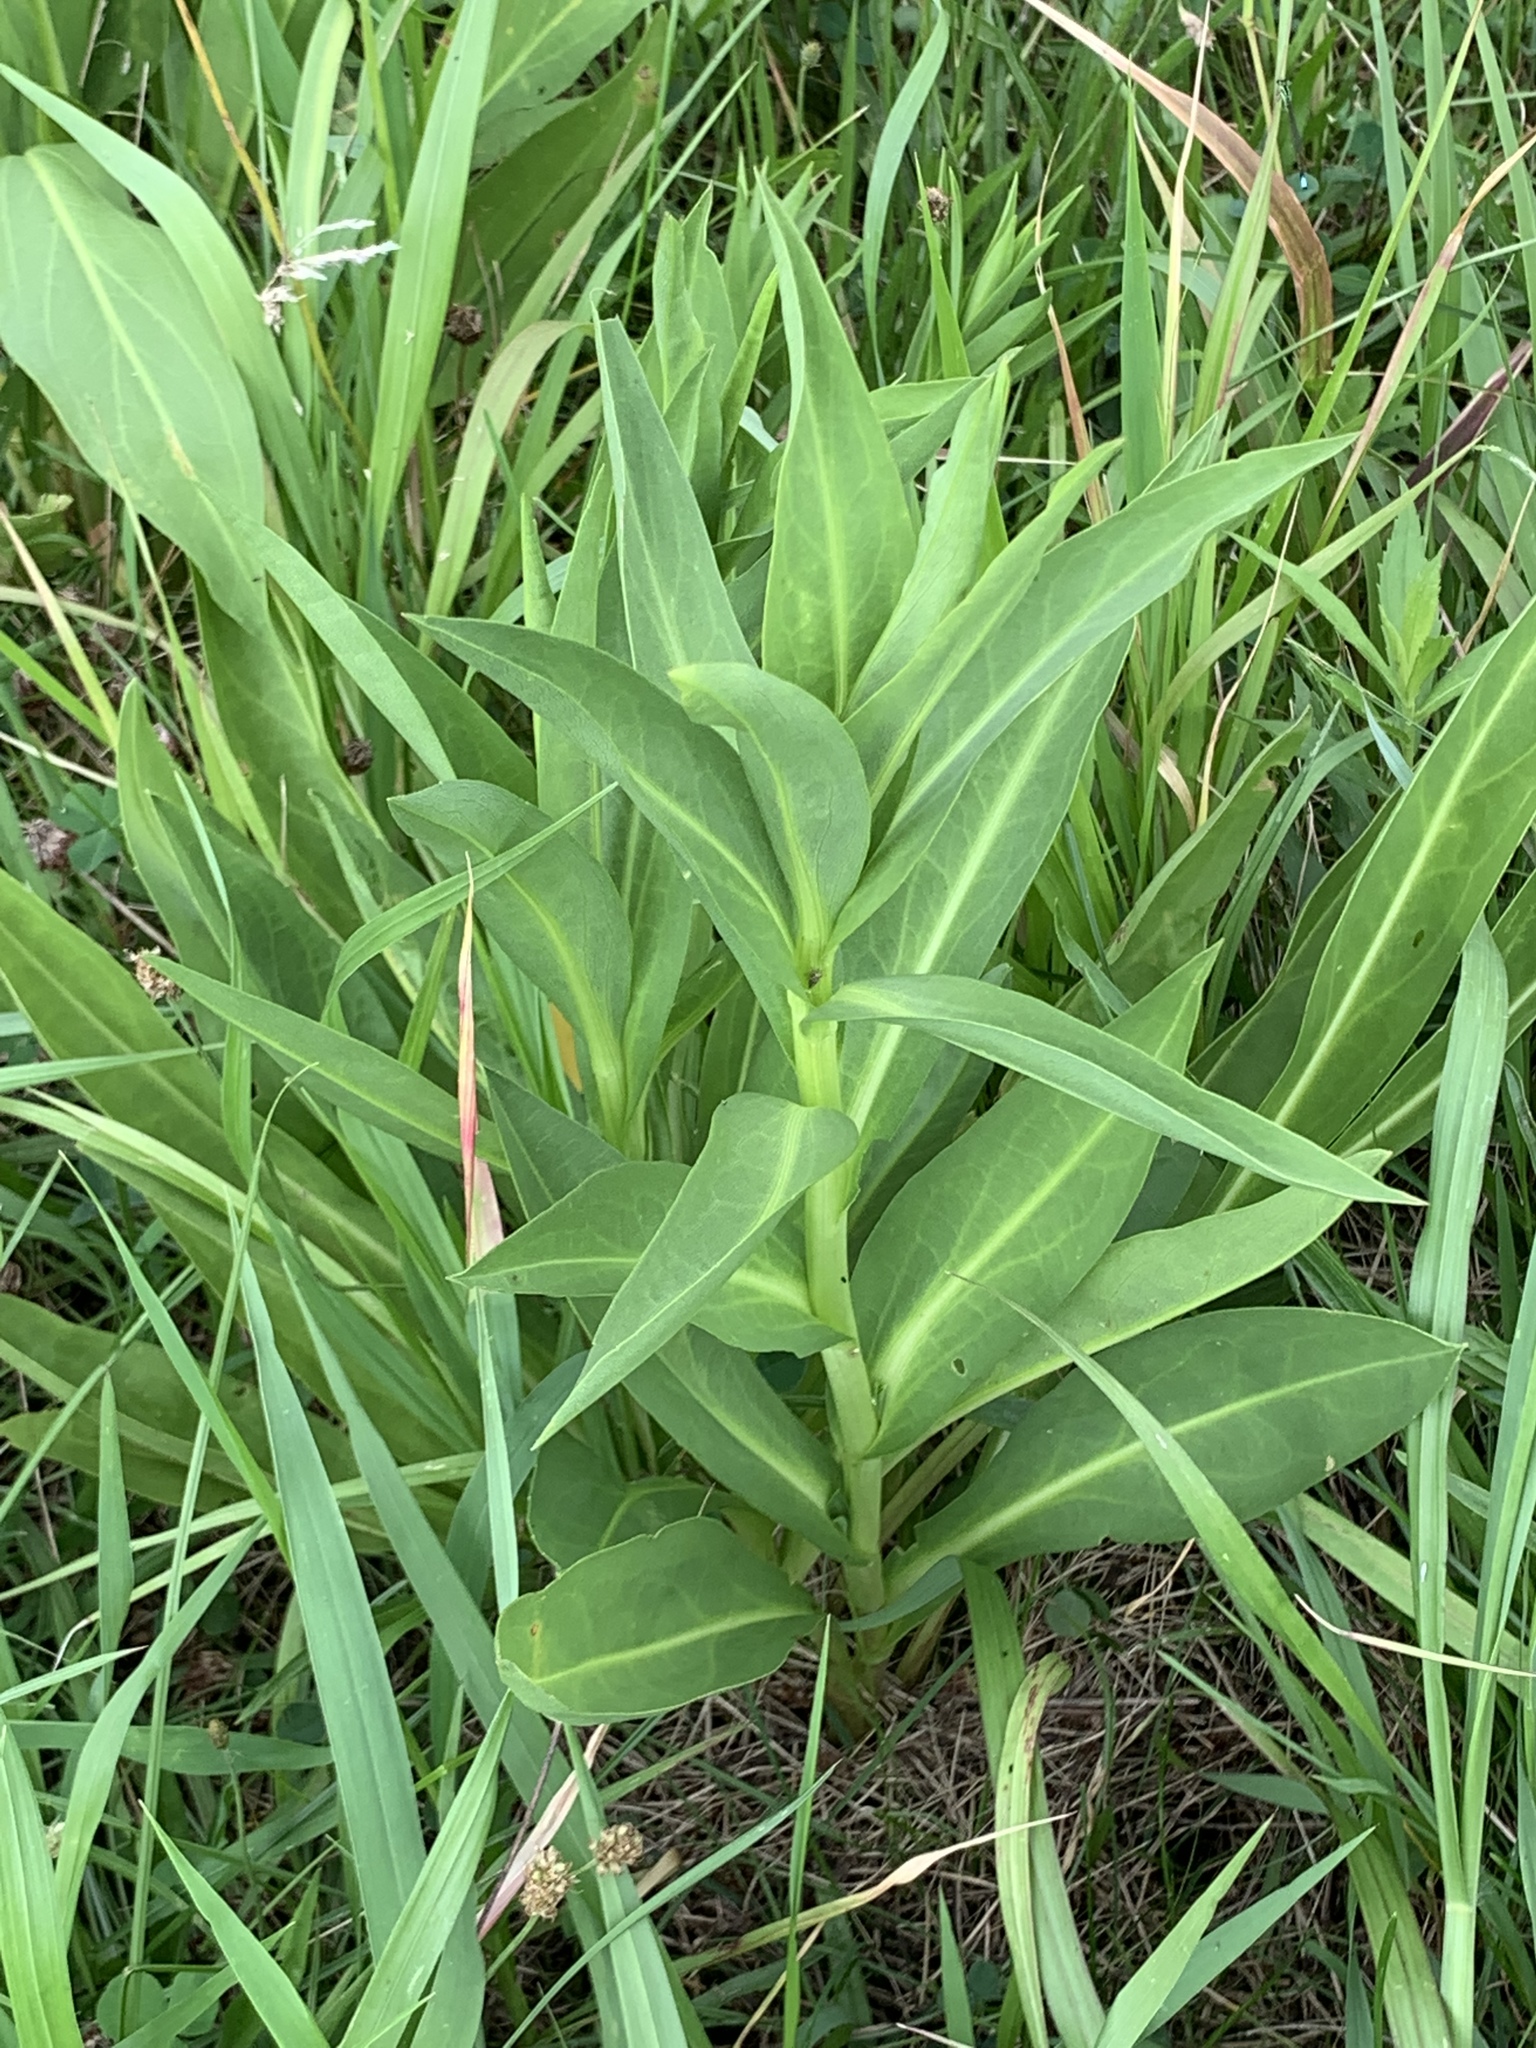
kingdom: Plantae
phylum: Tracheophyta
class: Magnoliopsida
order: Asterales
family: Asteraceae
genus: Solidago
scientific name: Solidago sempervirens
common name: Salt-marsh goldenrod
